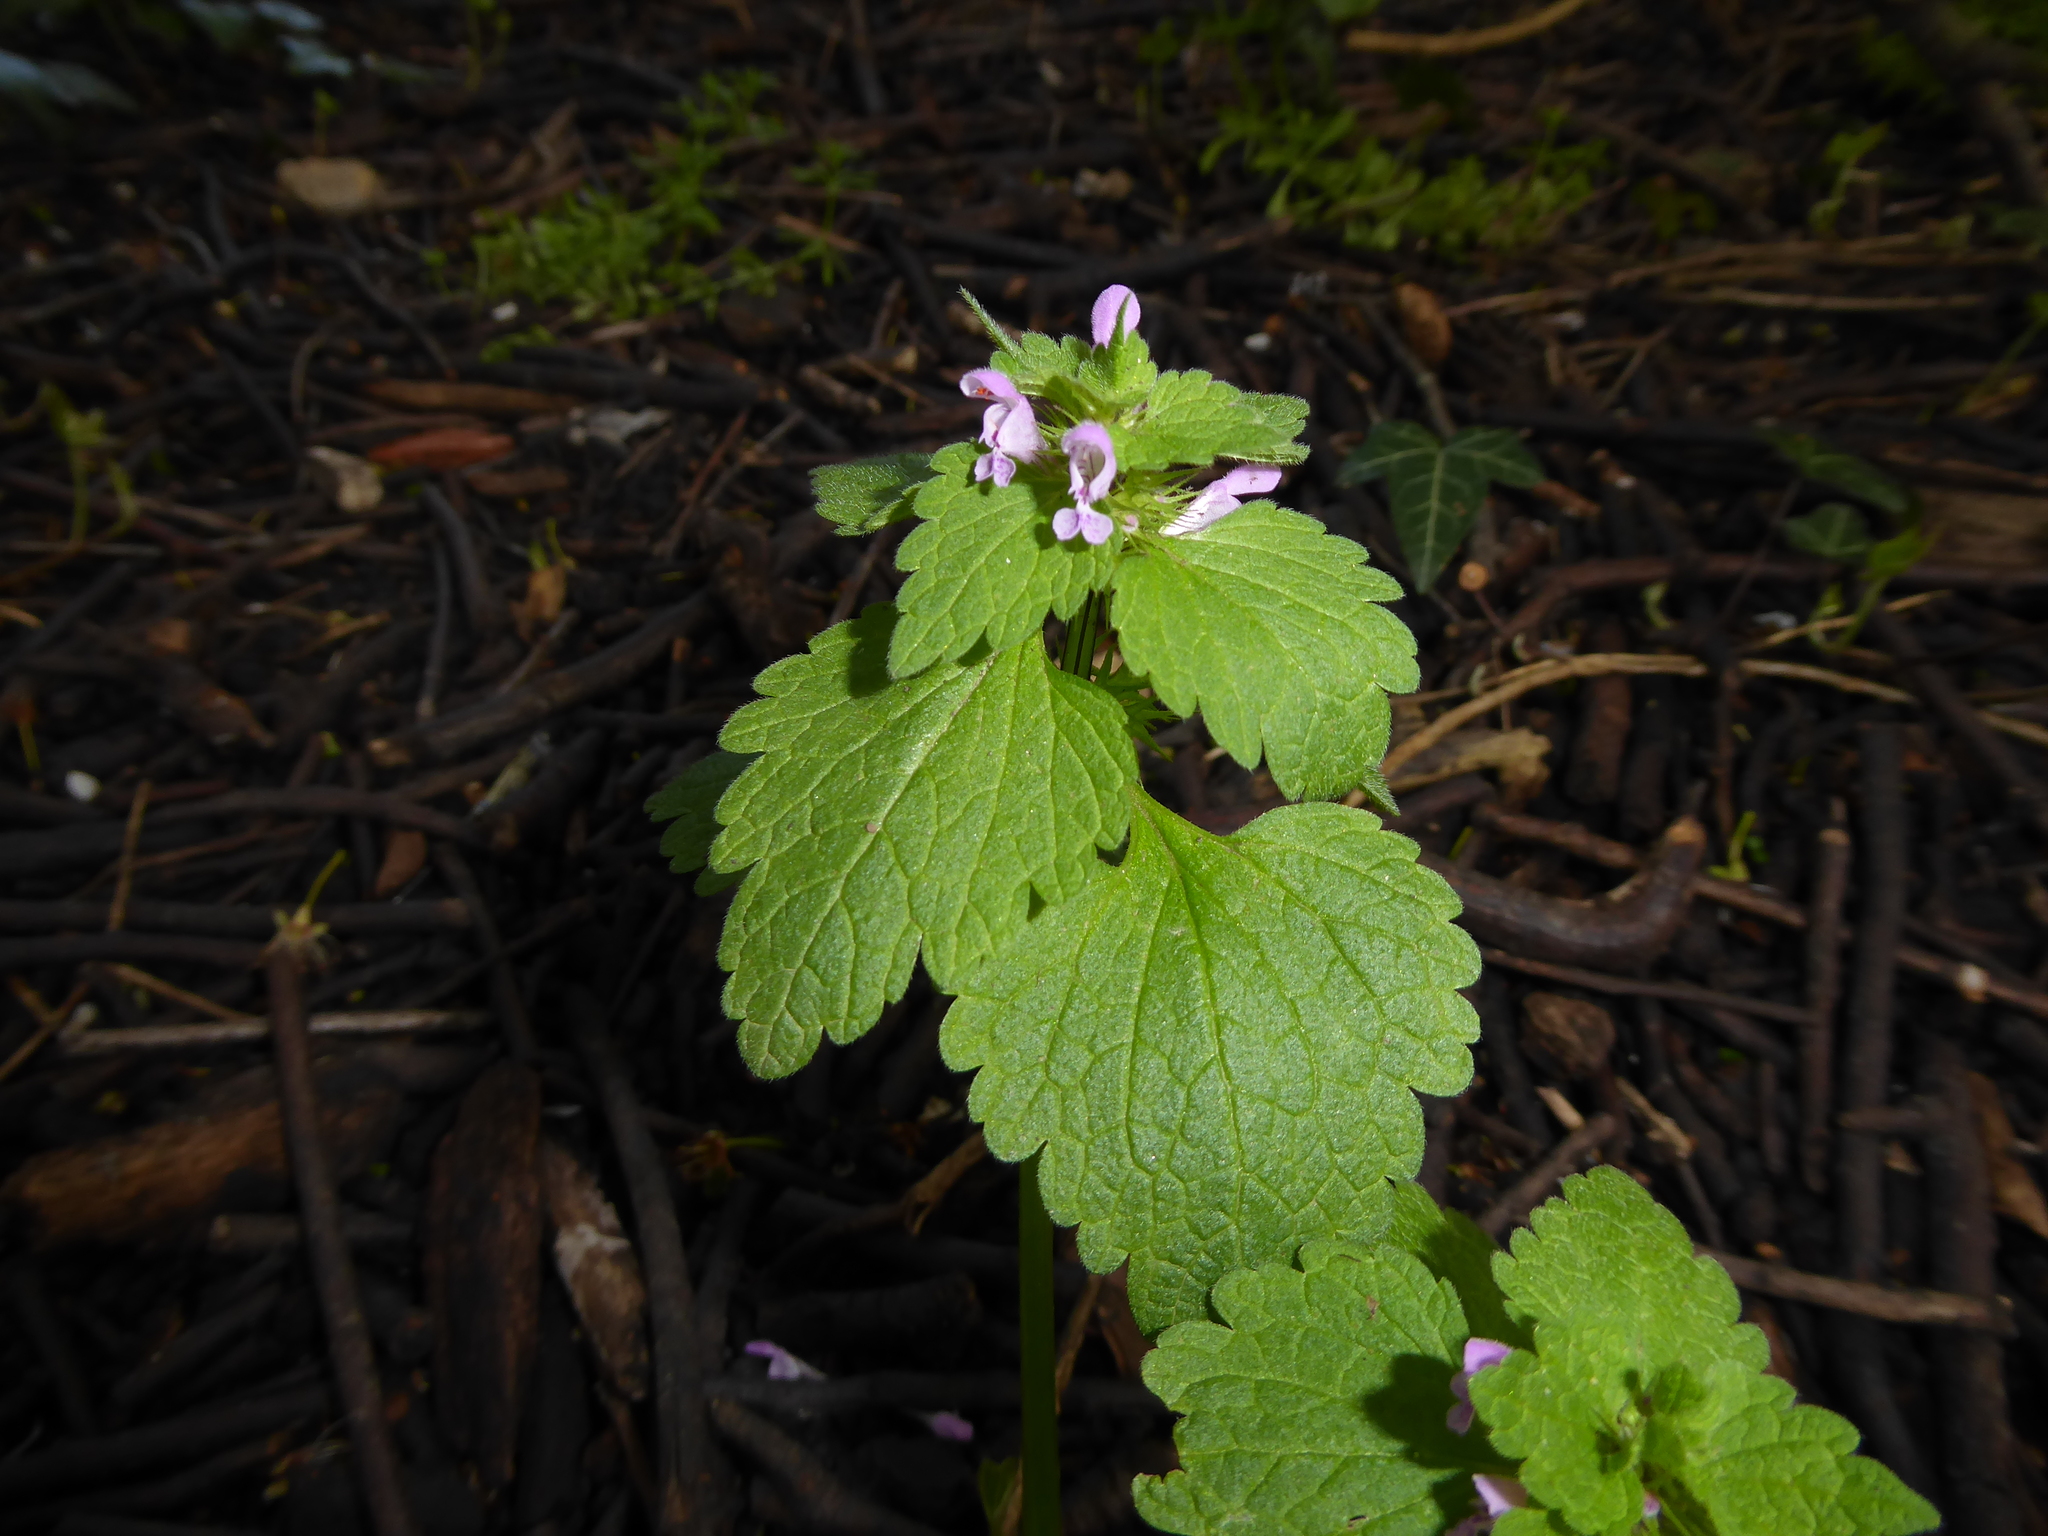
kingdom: Plantae
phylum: Tracheophyta
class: Magnoliopsida
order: Lamiales
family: Lamiaceae
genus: Lamium
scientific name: Lamium purpureum
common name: Red dead-nettle
